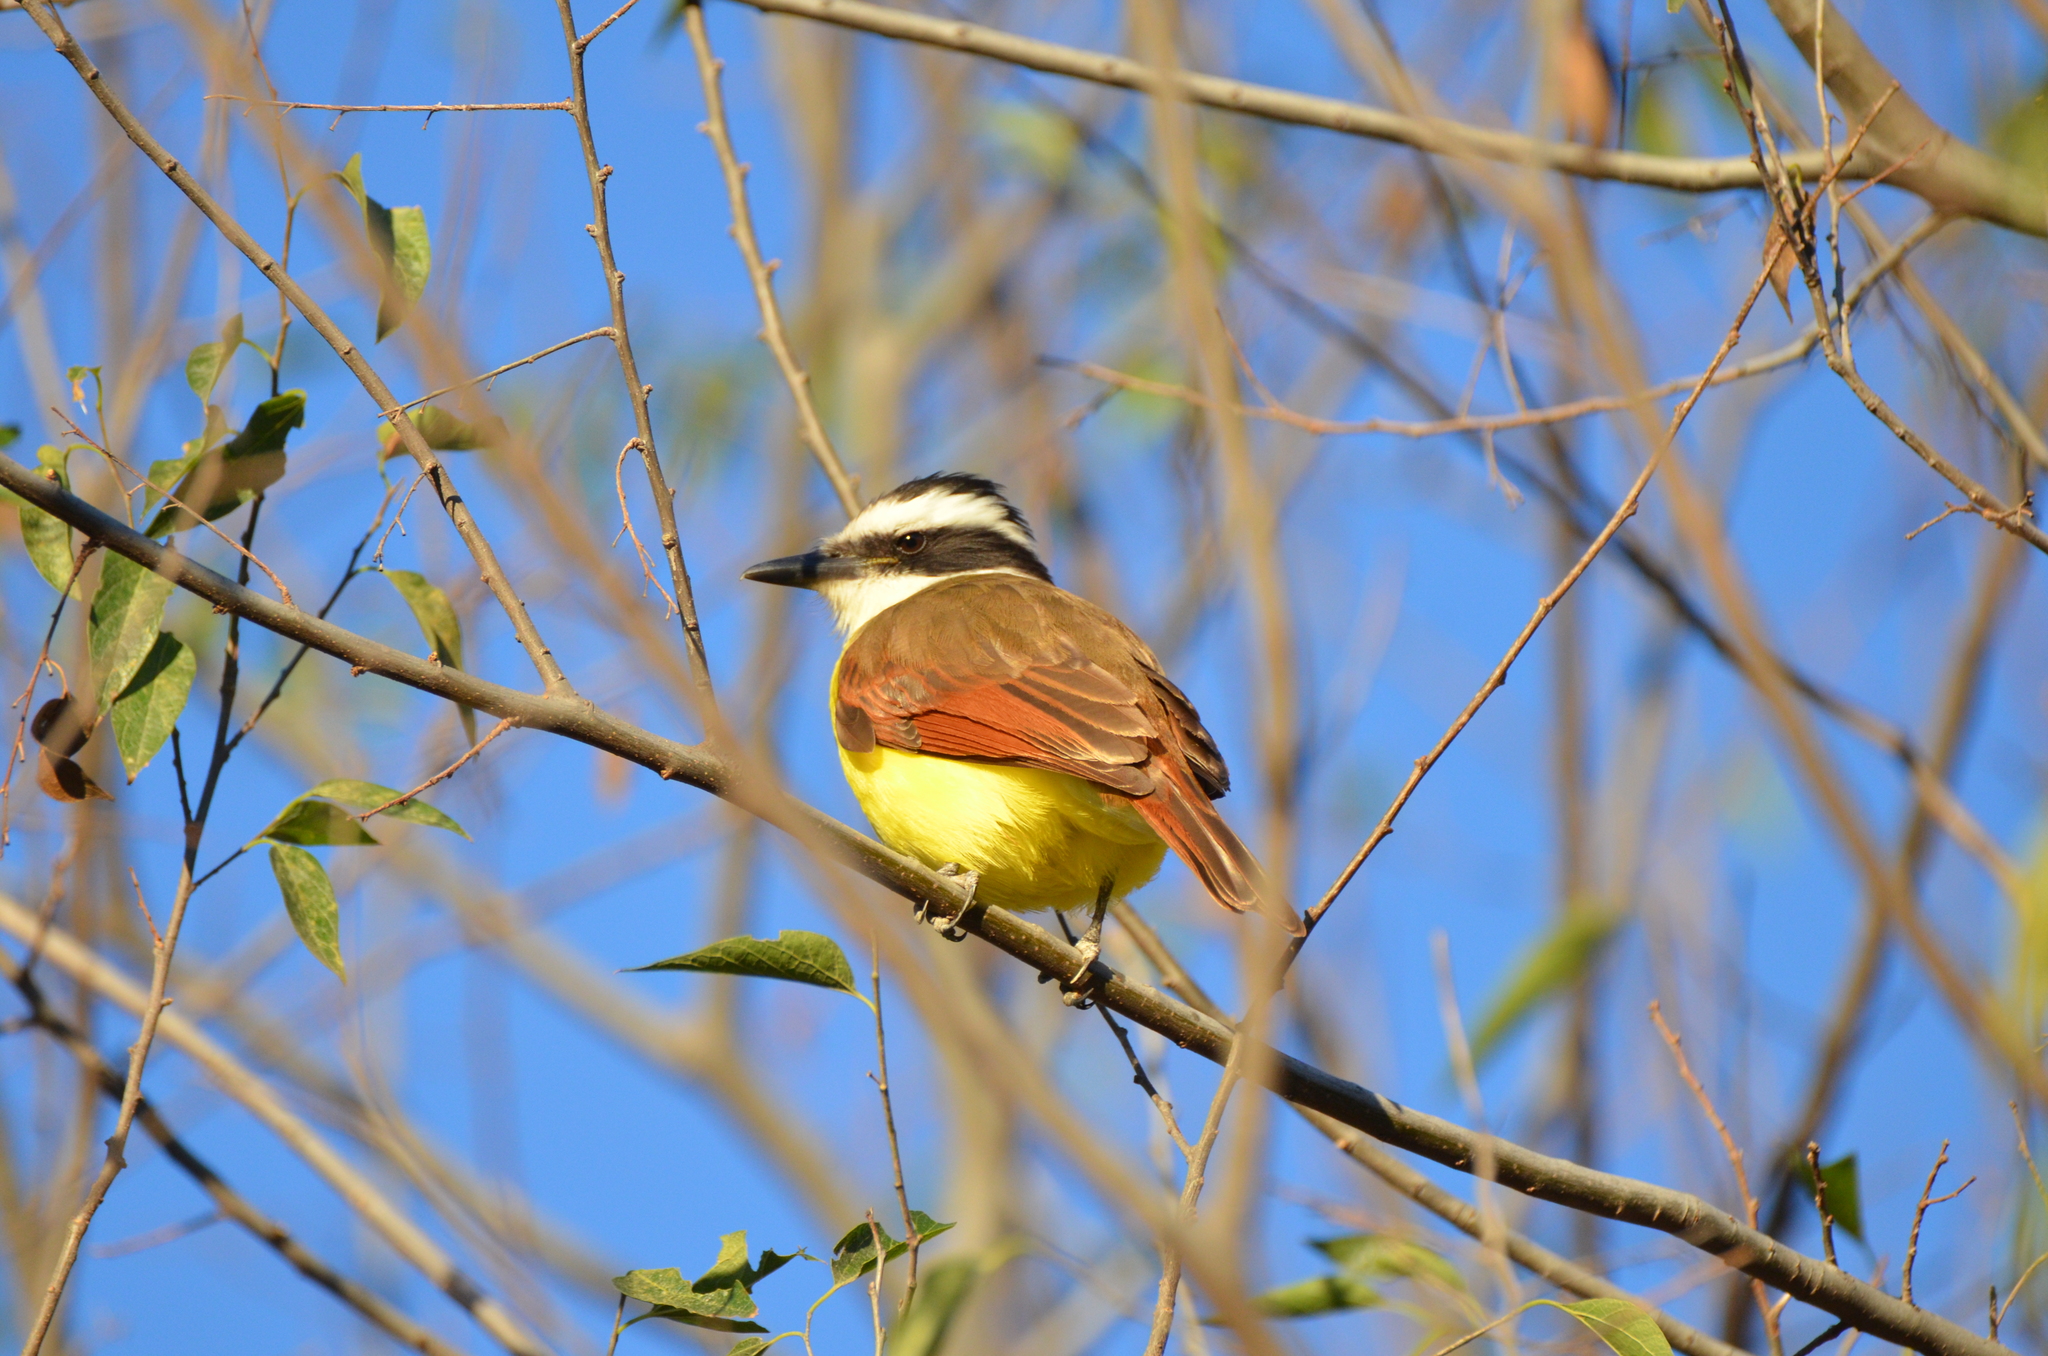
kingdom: Animalia
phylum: Chordata
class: Aves
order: Passeriformes
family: Tyrannidae
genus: Pitangus
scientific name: Pitangus sulphuratus
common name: Great kiskadee
